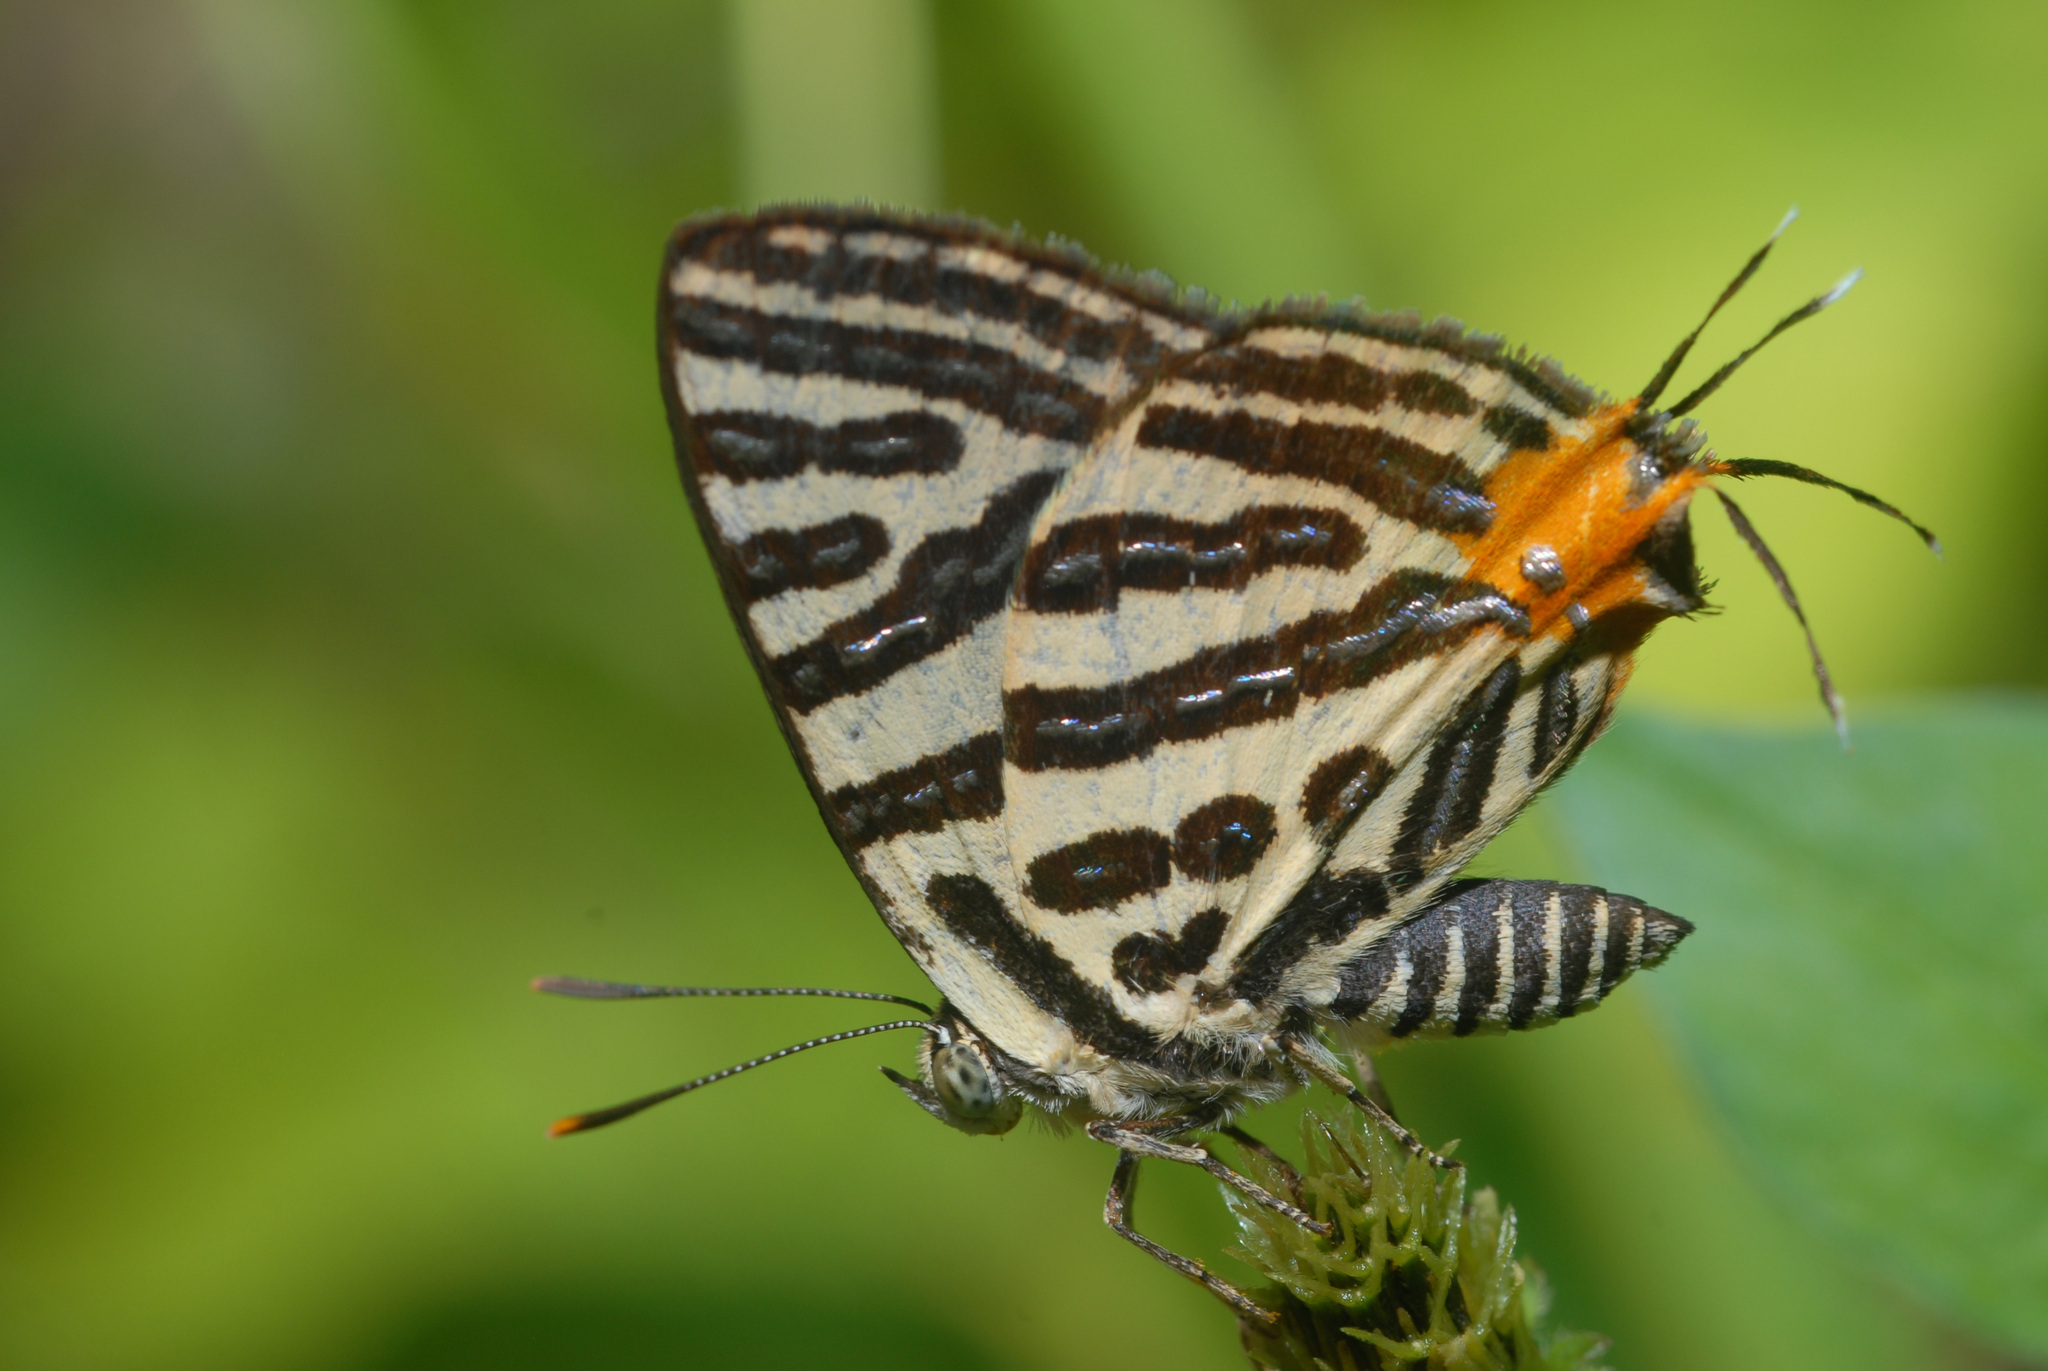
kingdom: Animalia
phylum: Arthropoda
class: Insecta
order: Lepidoptera
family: Lycaenidae
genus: Cigaritis
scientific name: Cigaritis syama
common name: Club silverline
